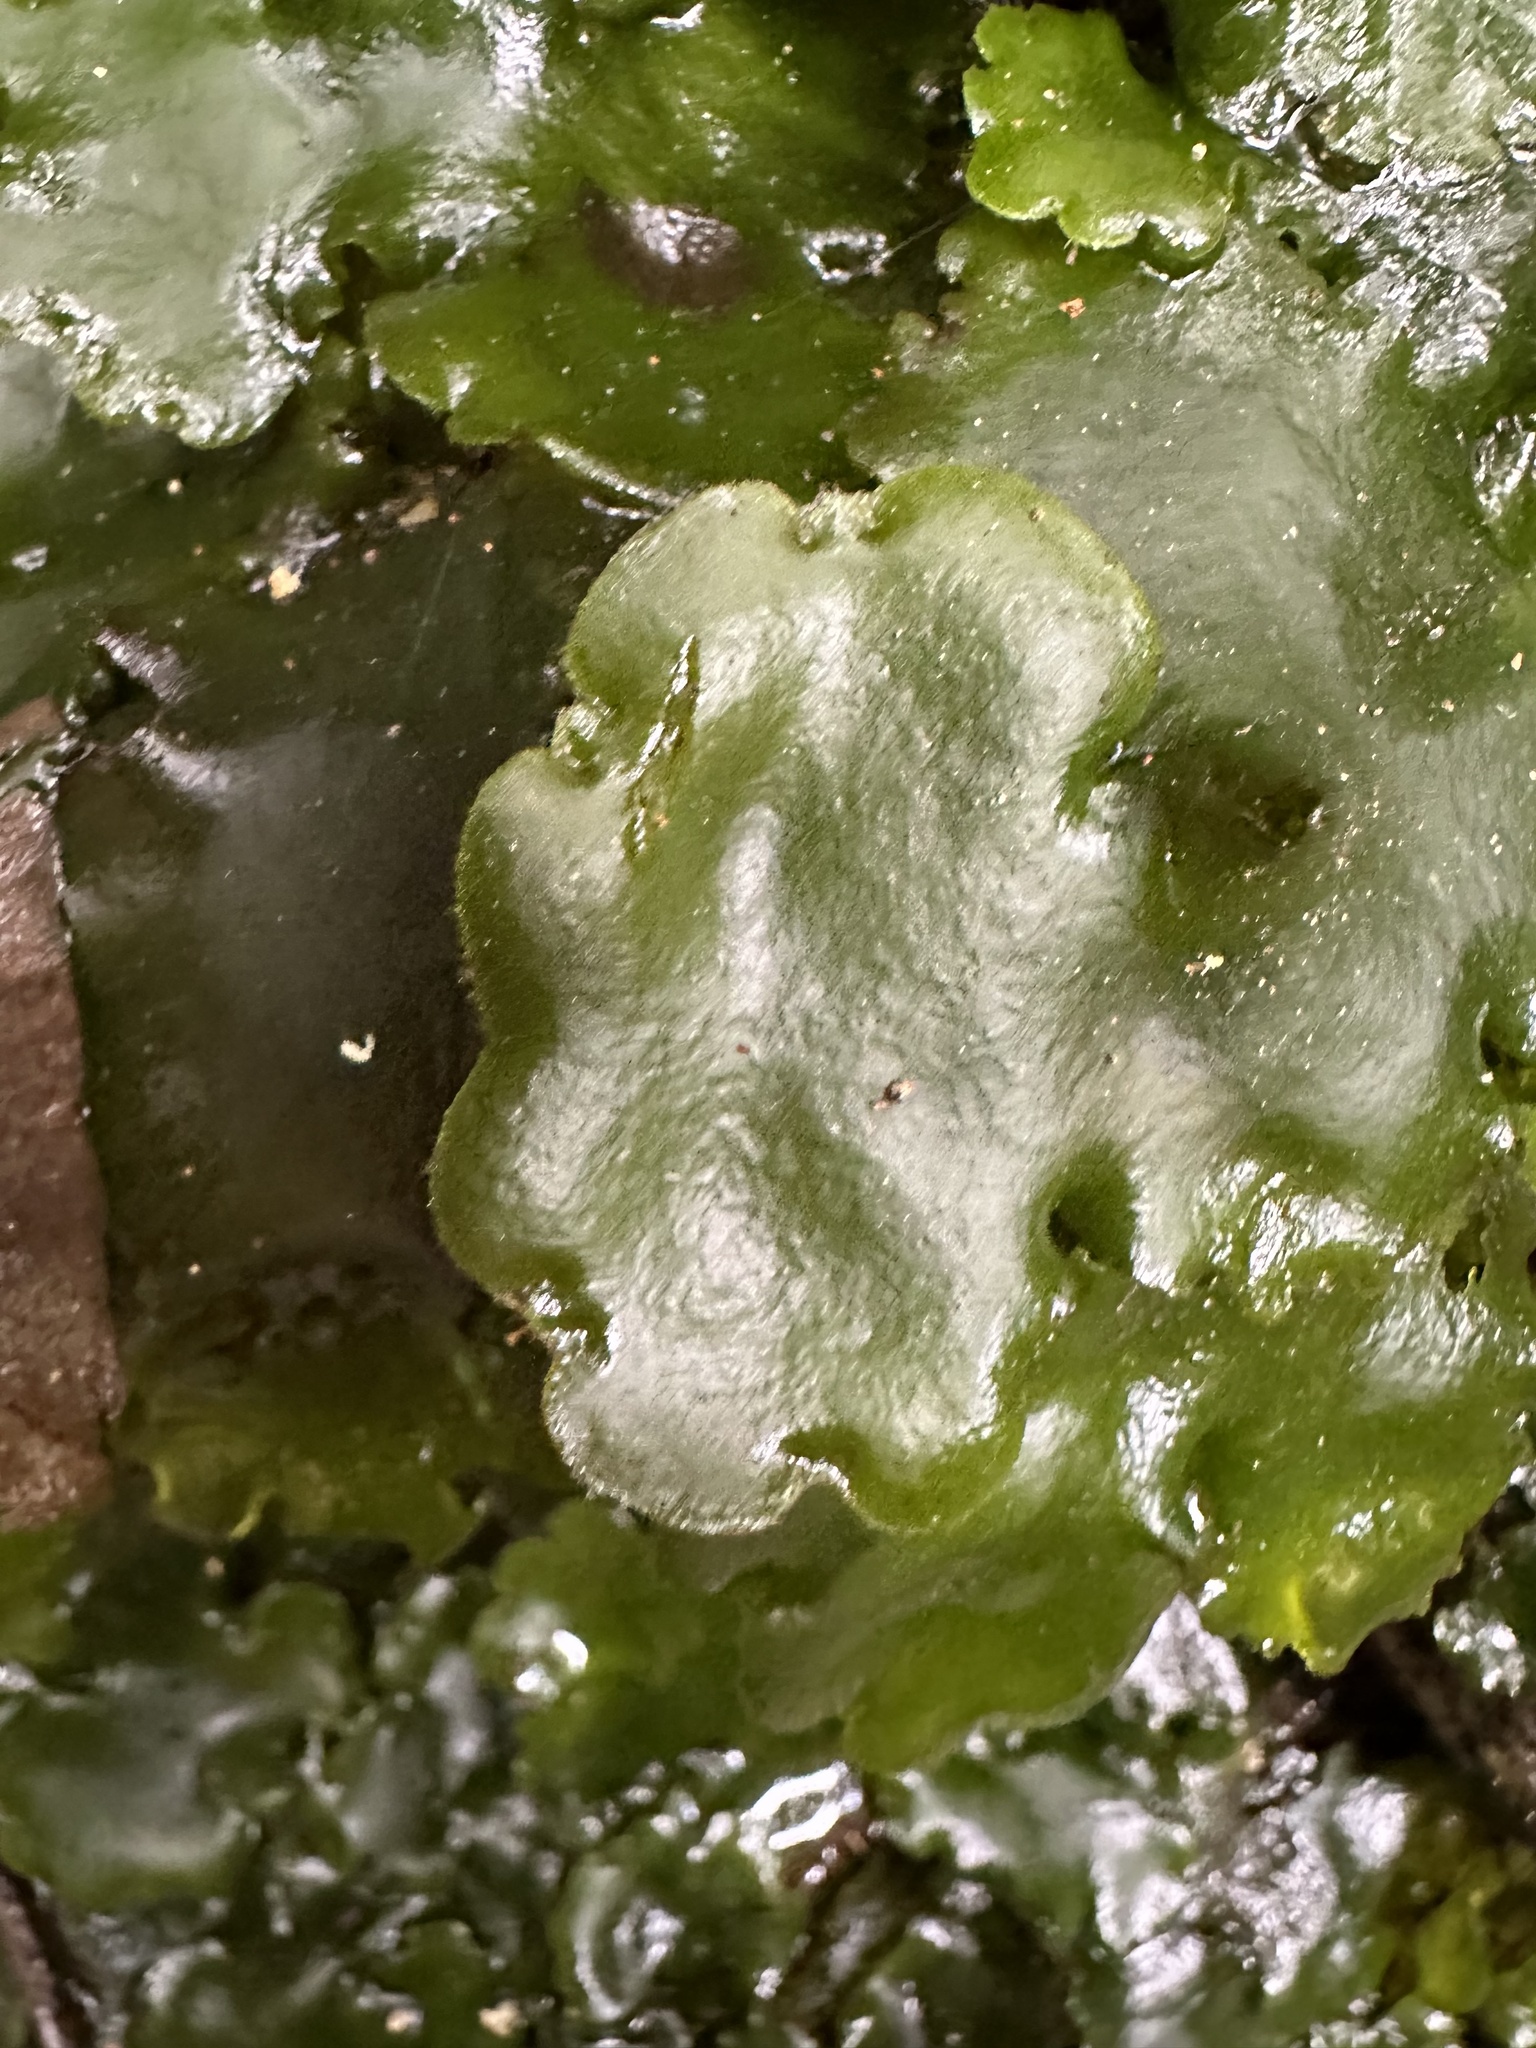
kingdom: Plantae
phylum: Marchantiophyta
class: Marchantiopsida
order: Marchantiales
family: Monocleaceae
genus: Monoclea
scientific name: Monoclea forsteri
